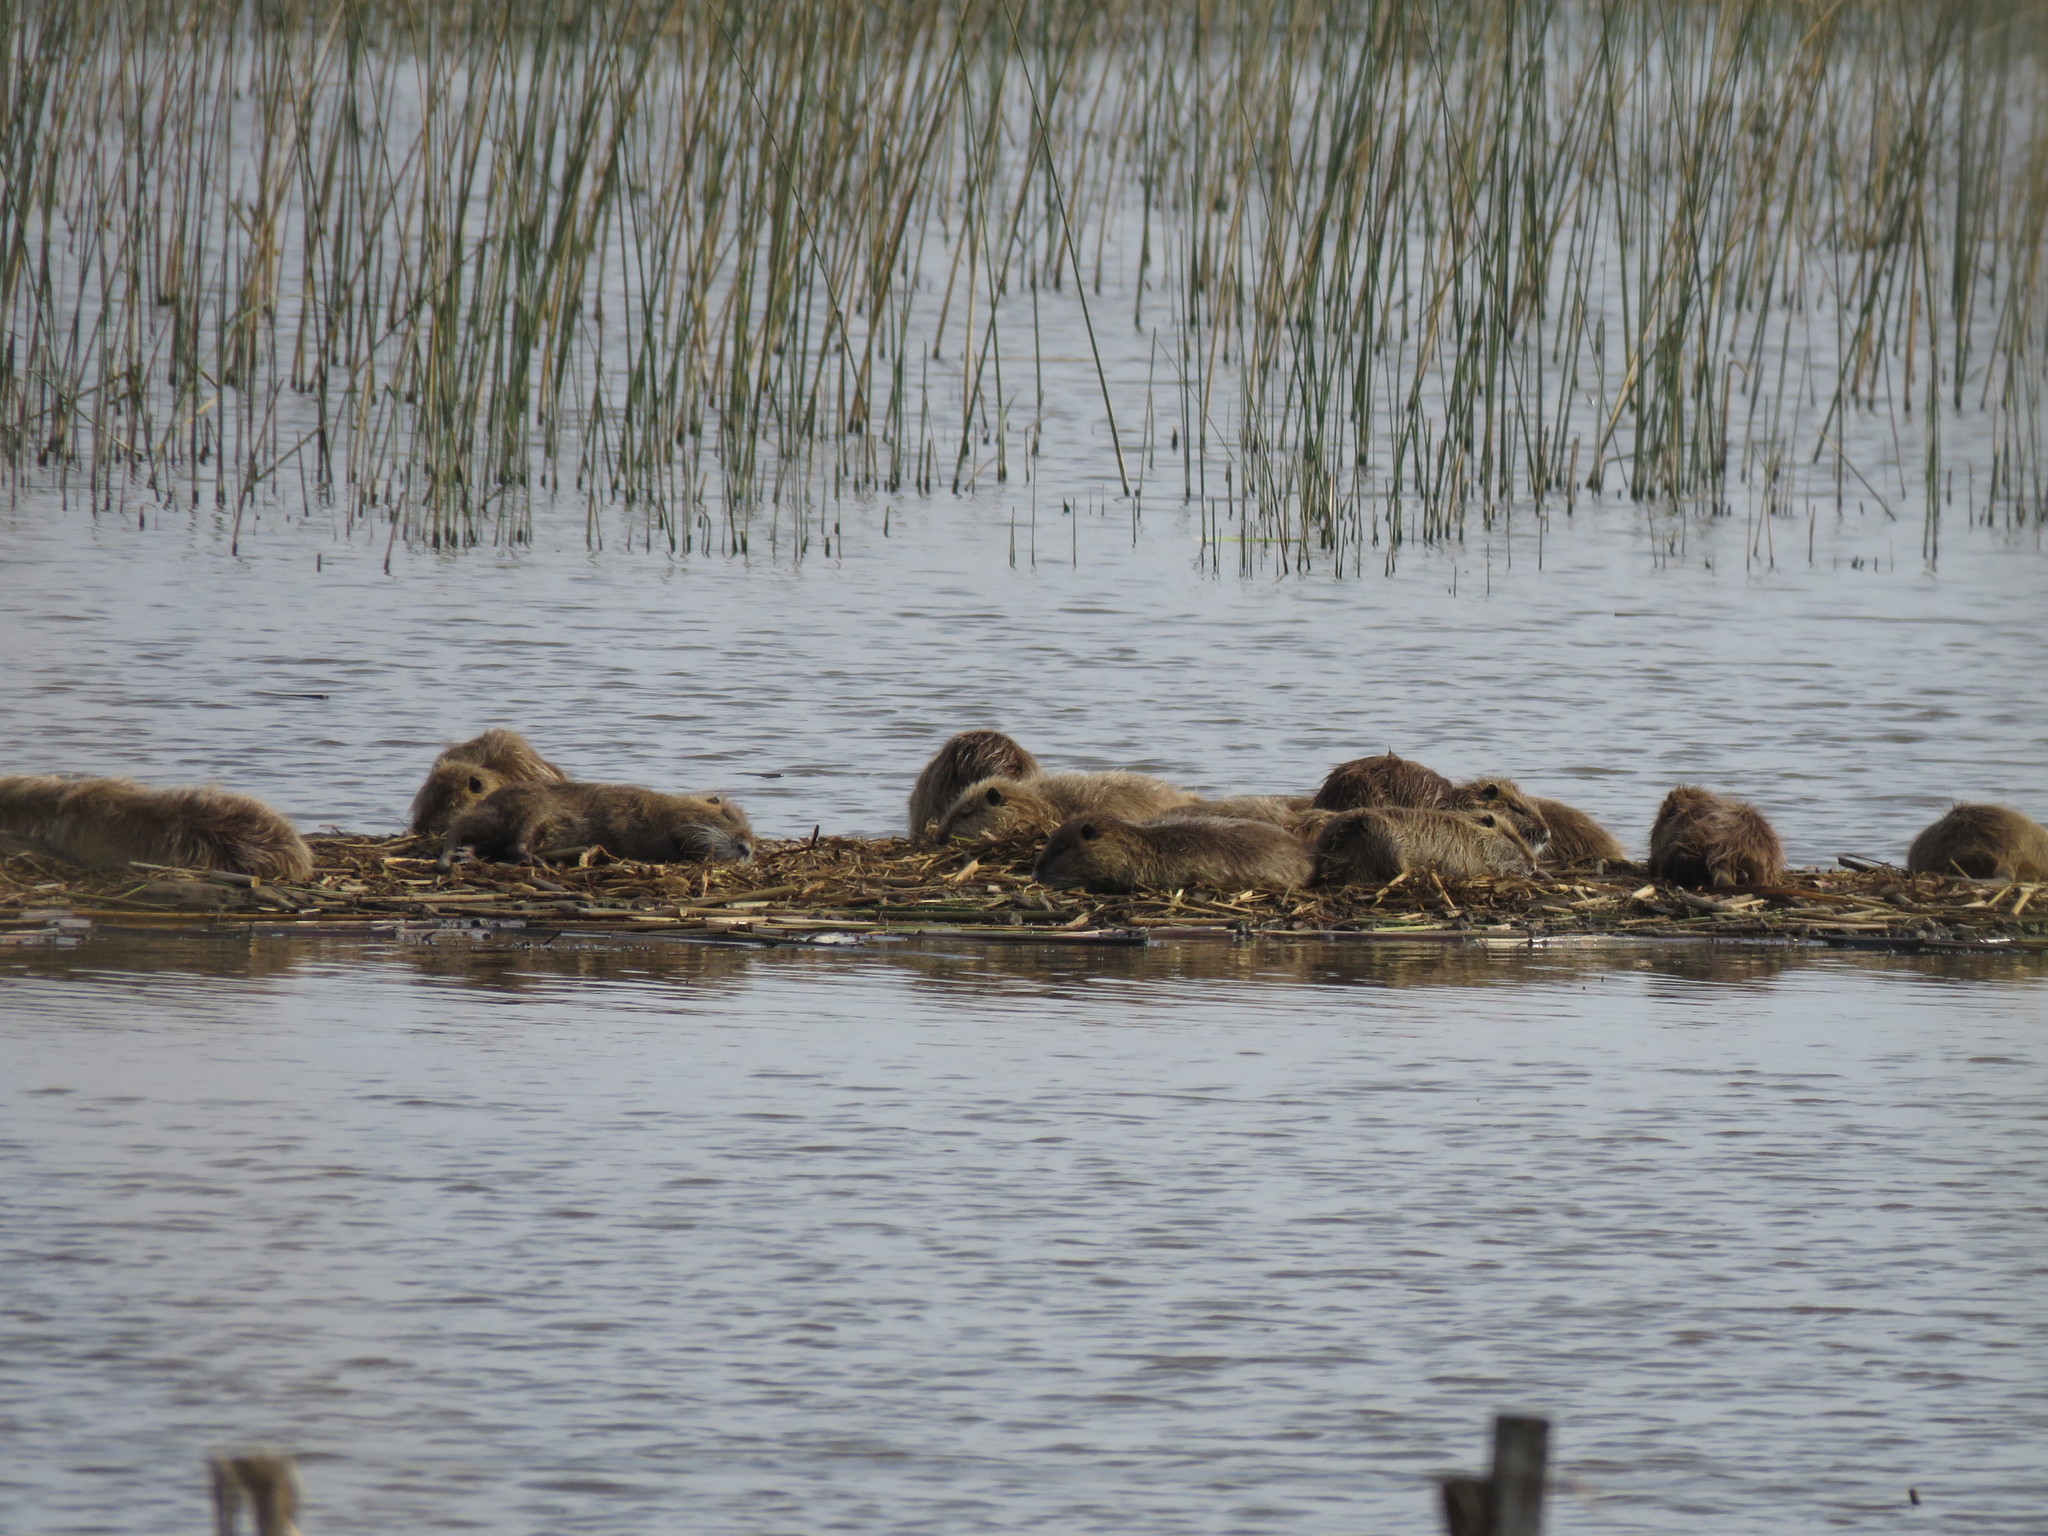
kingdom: Animalia
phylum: Chordata
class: Mammalia
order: Rodentia
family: Myocastoridae
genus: Myocastor
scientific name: Myocastor coypus
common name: Coypu
